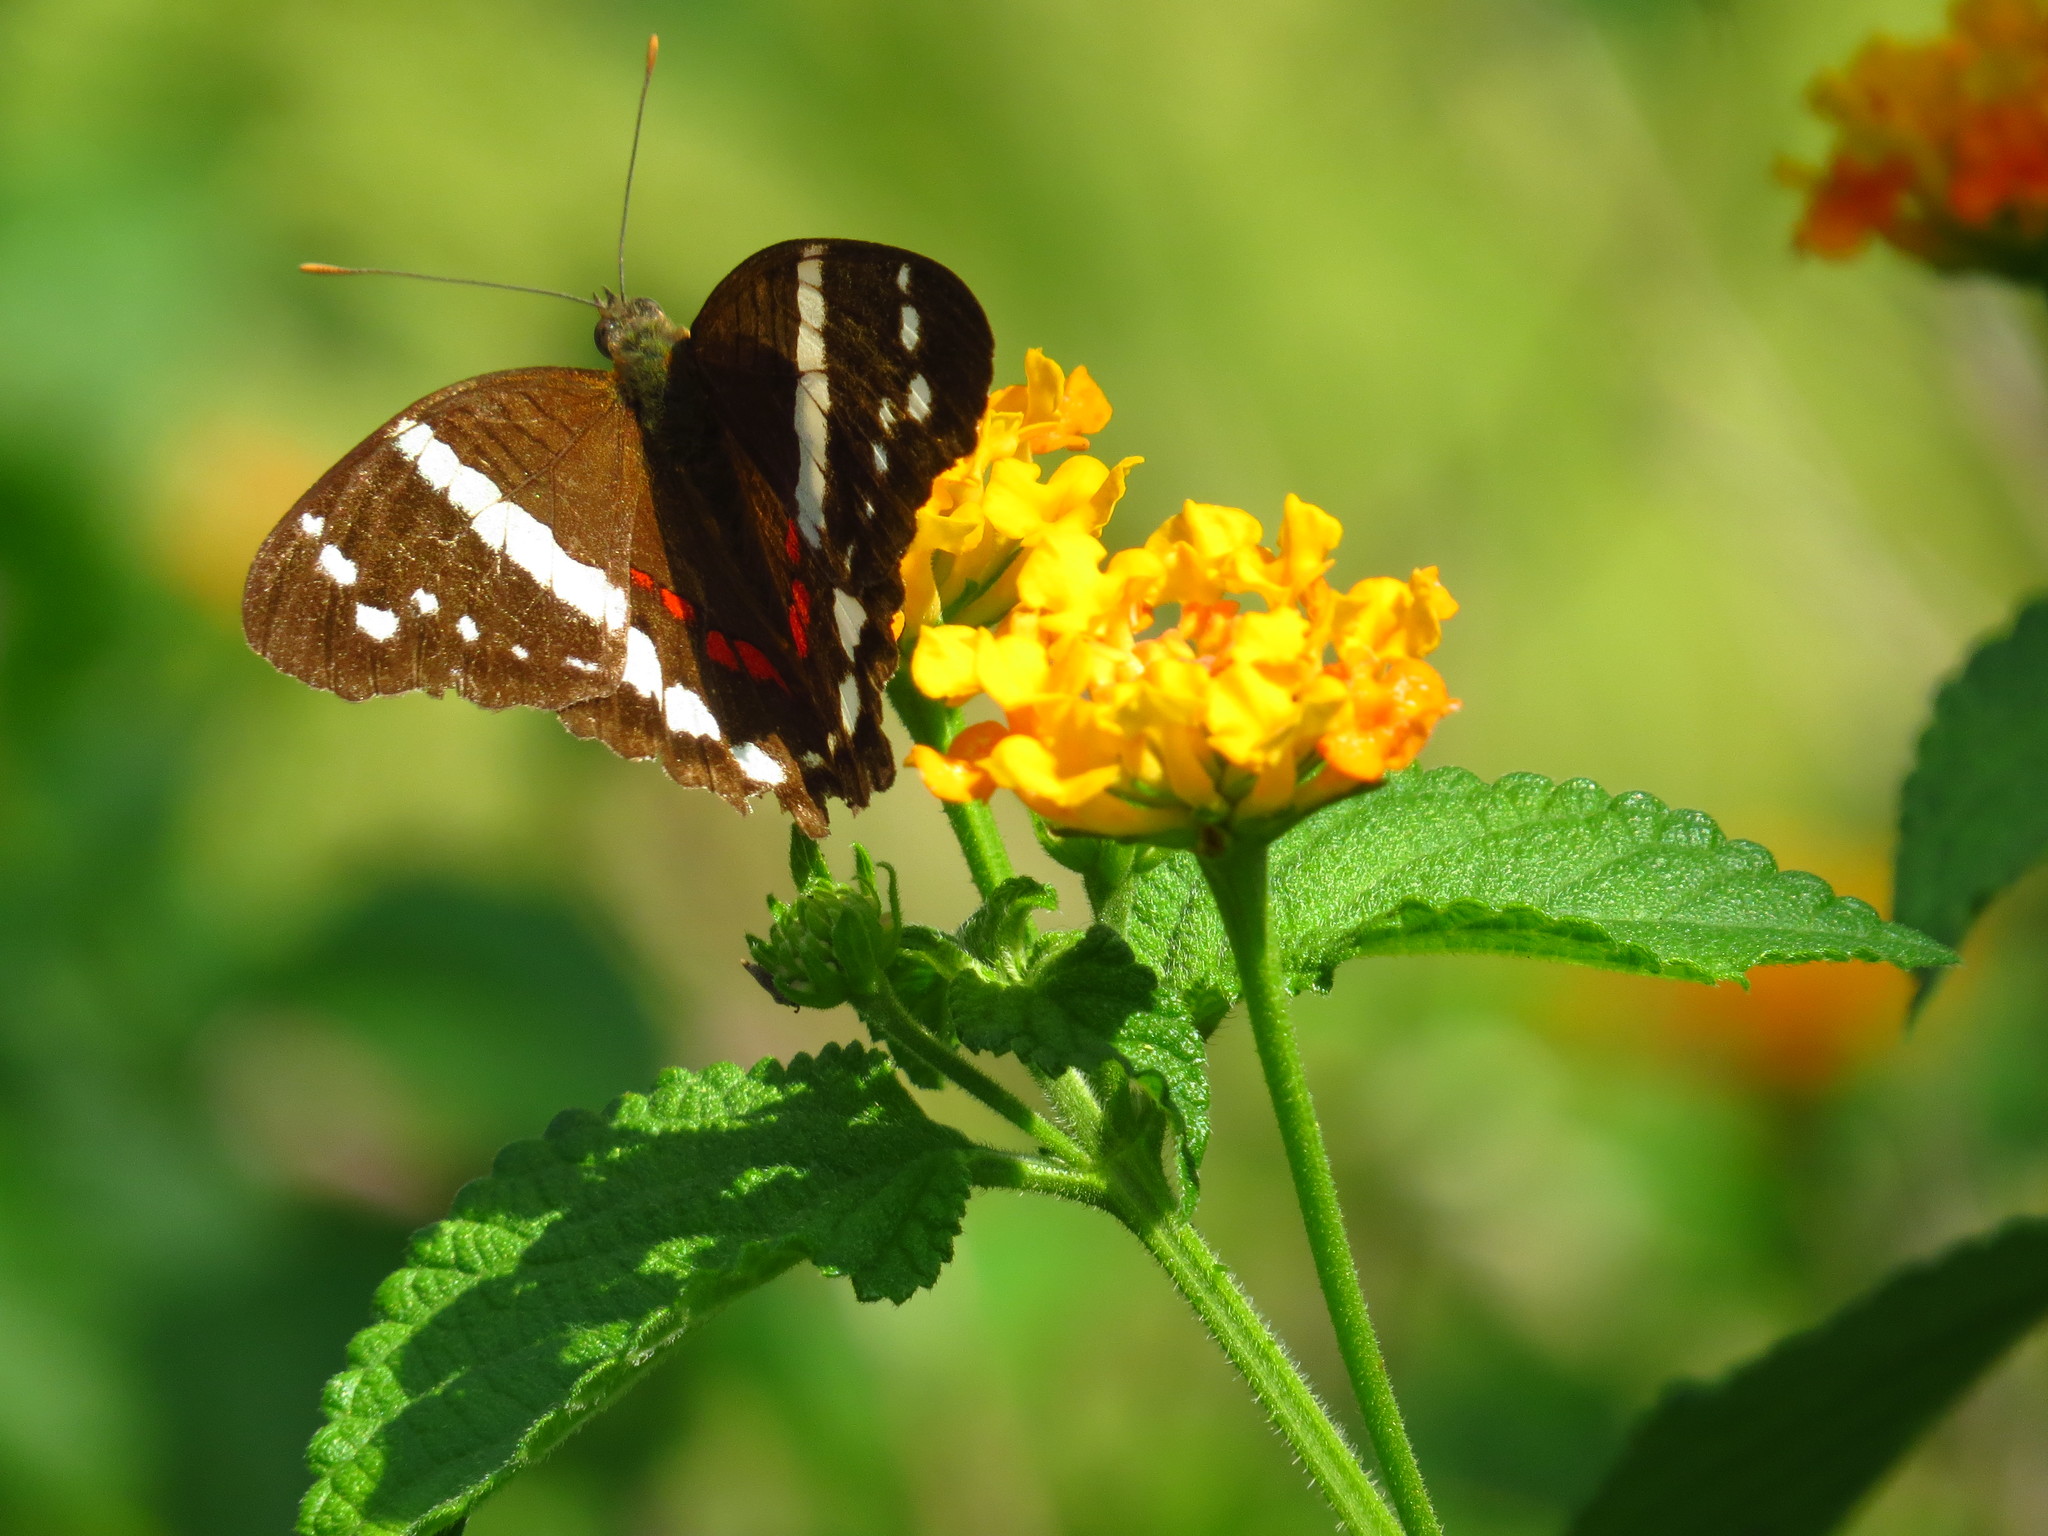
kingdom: Animalia
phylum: Arthropoda
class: Insecta
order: Lepidoptera
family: Nymphalidae
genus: Anartia
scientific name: Anartia fatima
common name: Banded peacock
